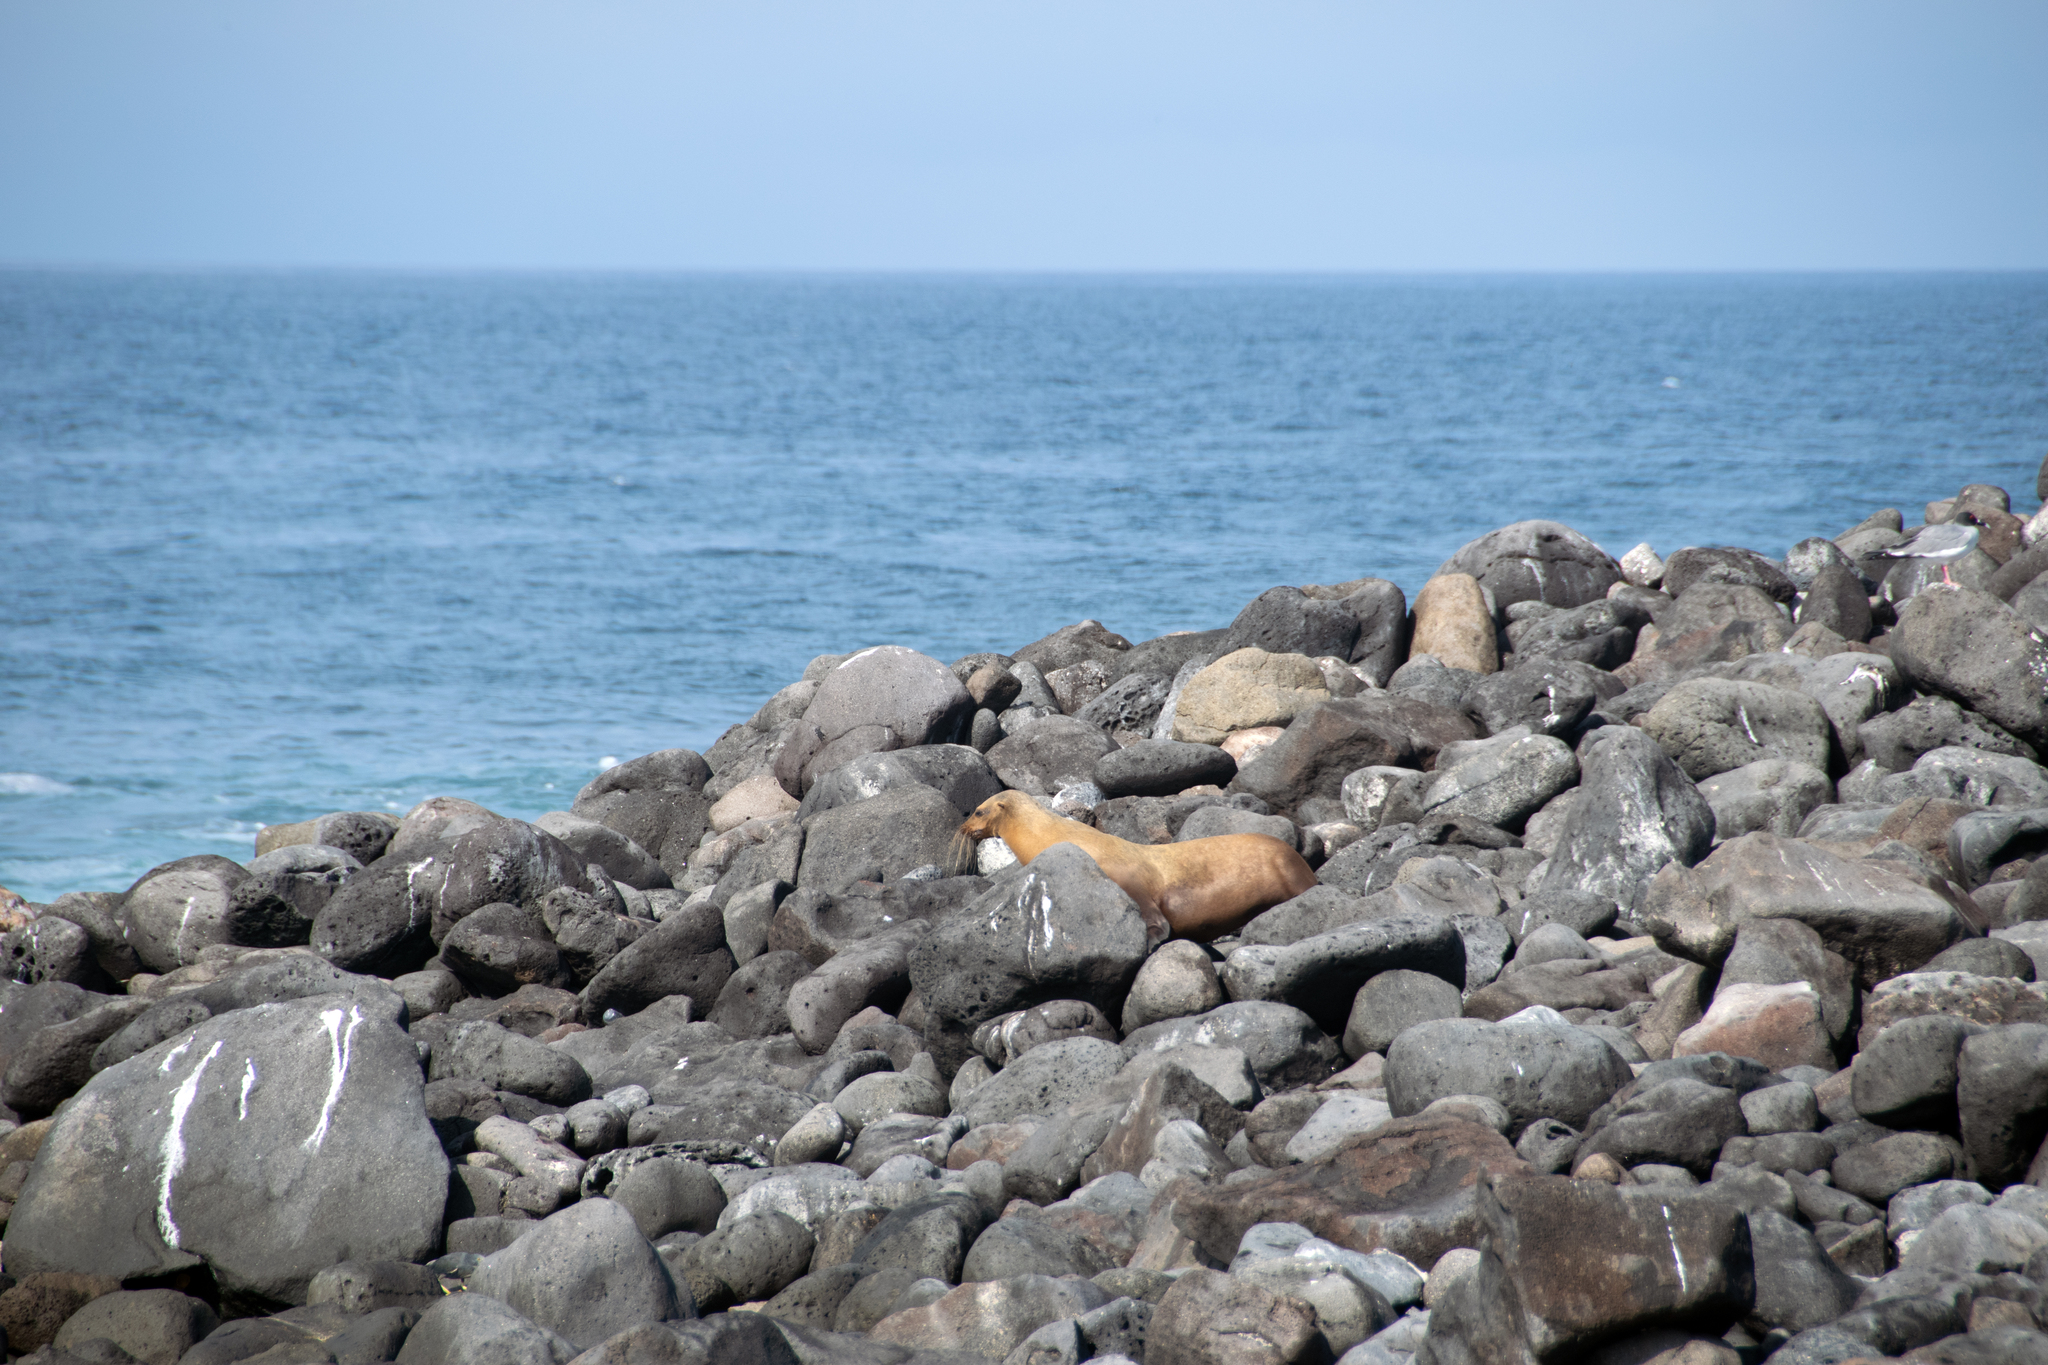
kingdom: Animalia
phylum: Chordata
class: Mammalia
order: Carnivora
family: Otariidae
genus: Zalophus
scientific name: Zalophus wollebaeki
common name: Galapagos sea lion
